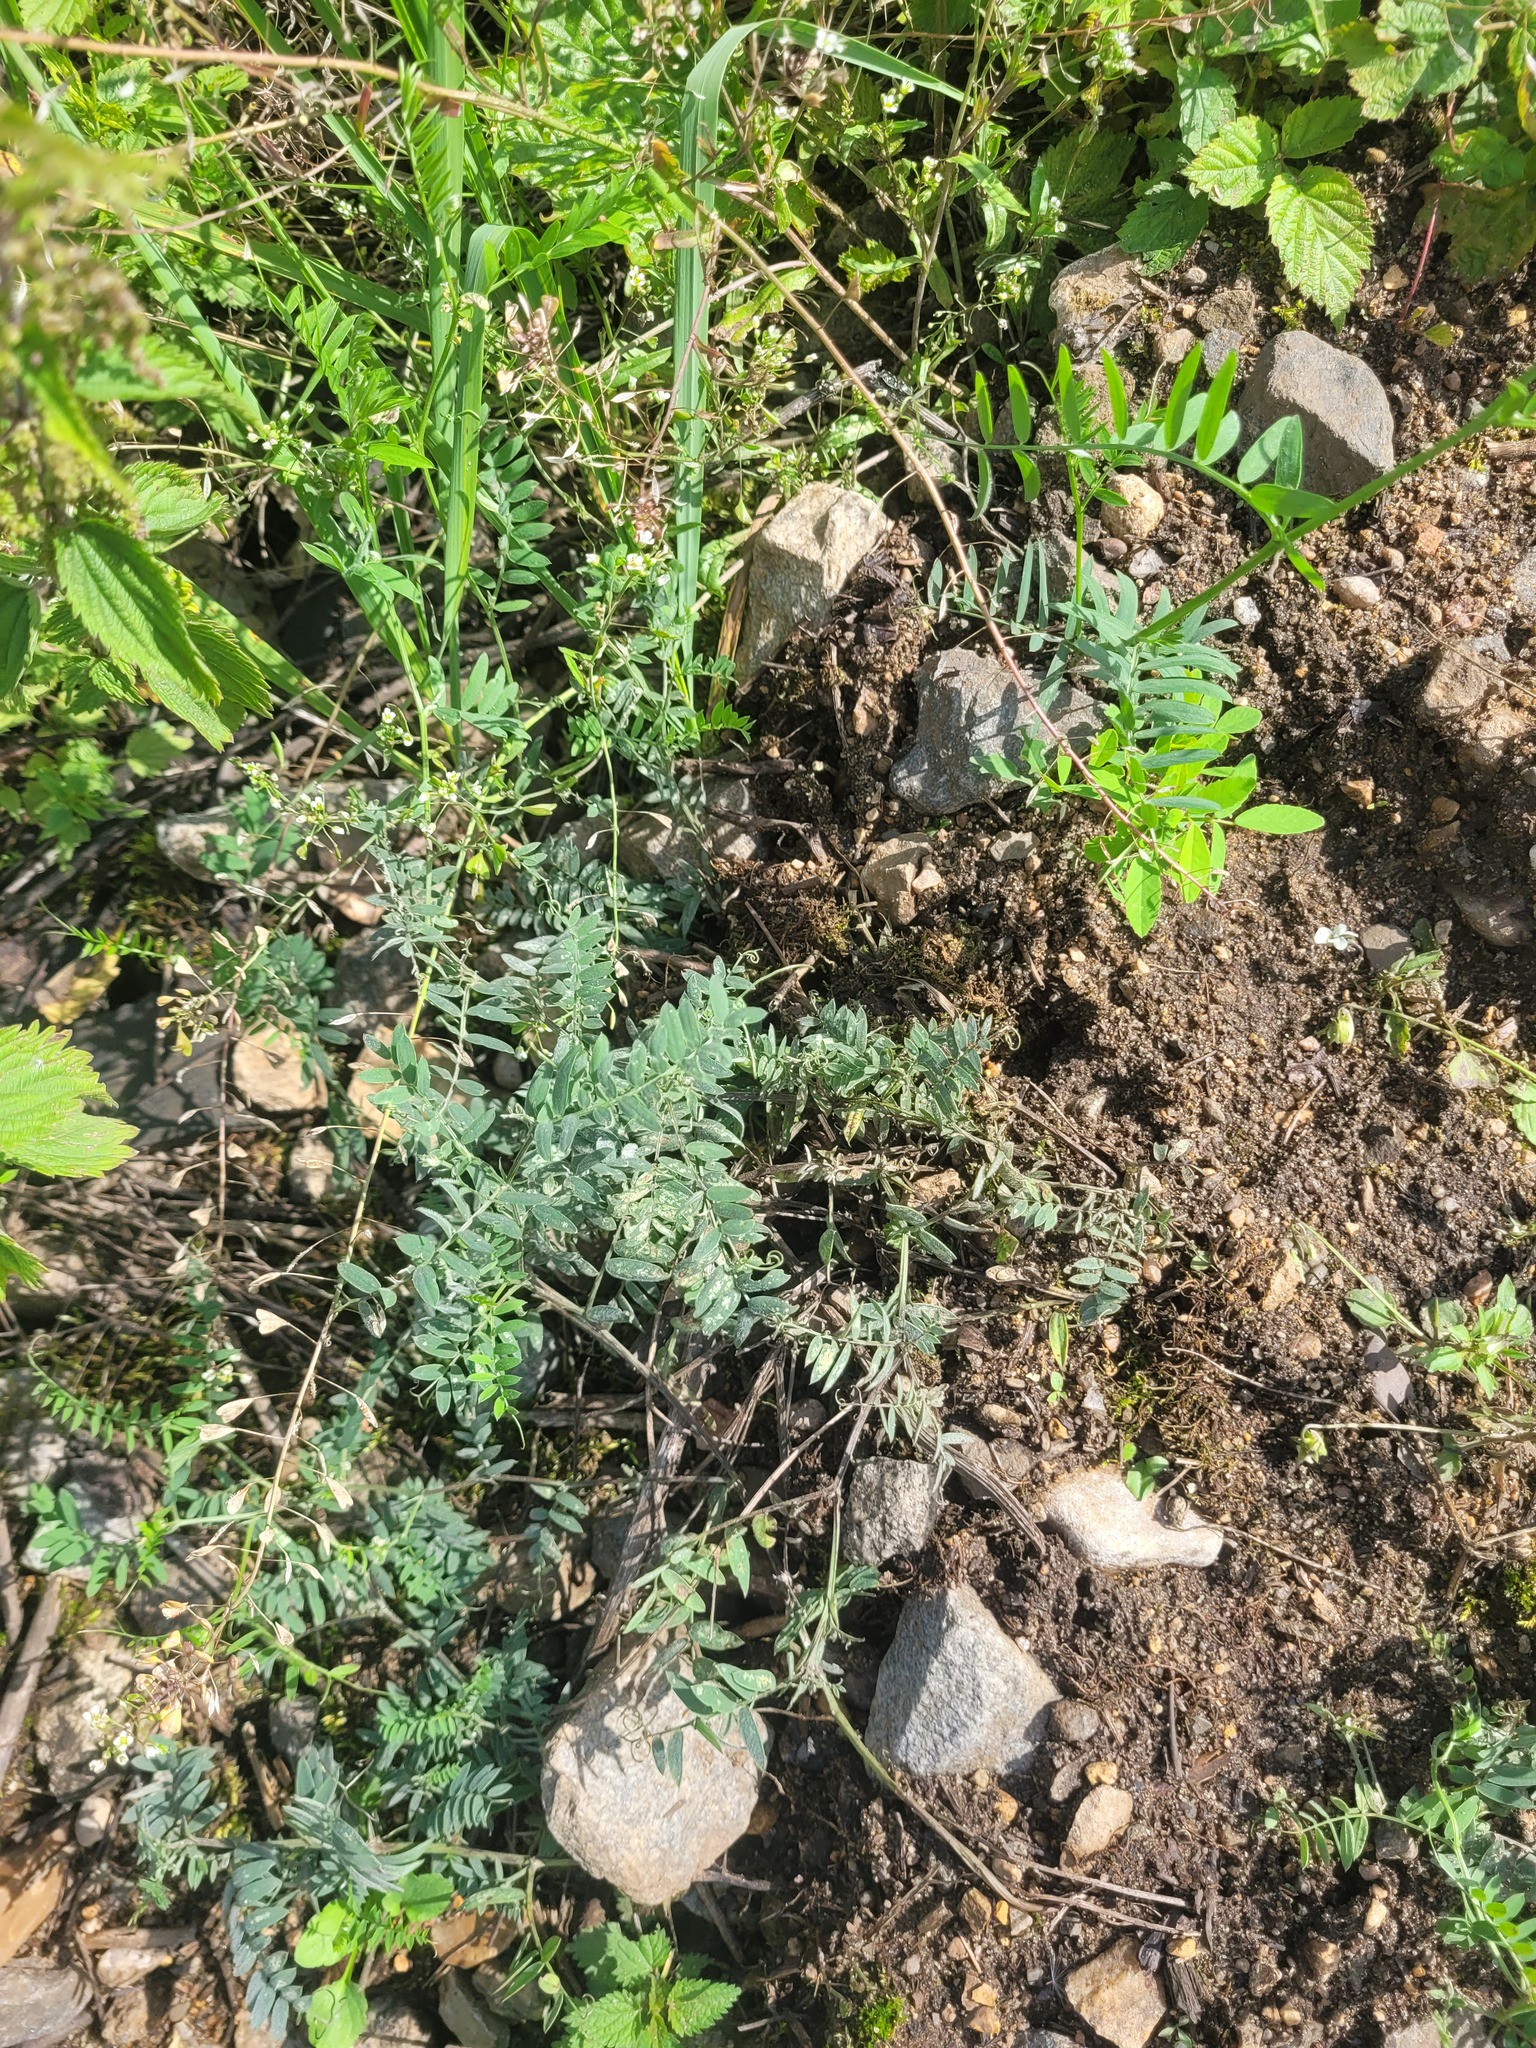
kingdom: Plantae
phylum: Tracheophyta
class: Magnoliopsida
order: Fabales
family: Fabaceae
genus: Vicia
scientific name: Vicia cracca
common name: Bird vetch
